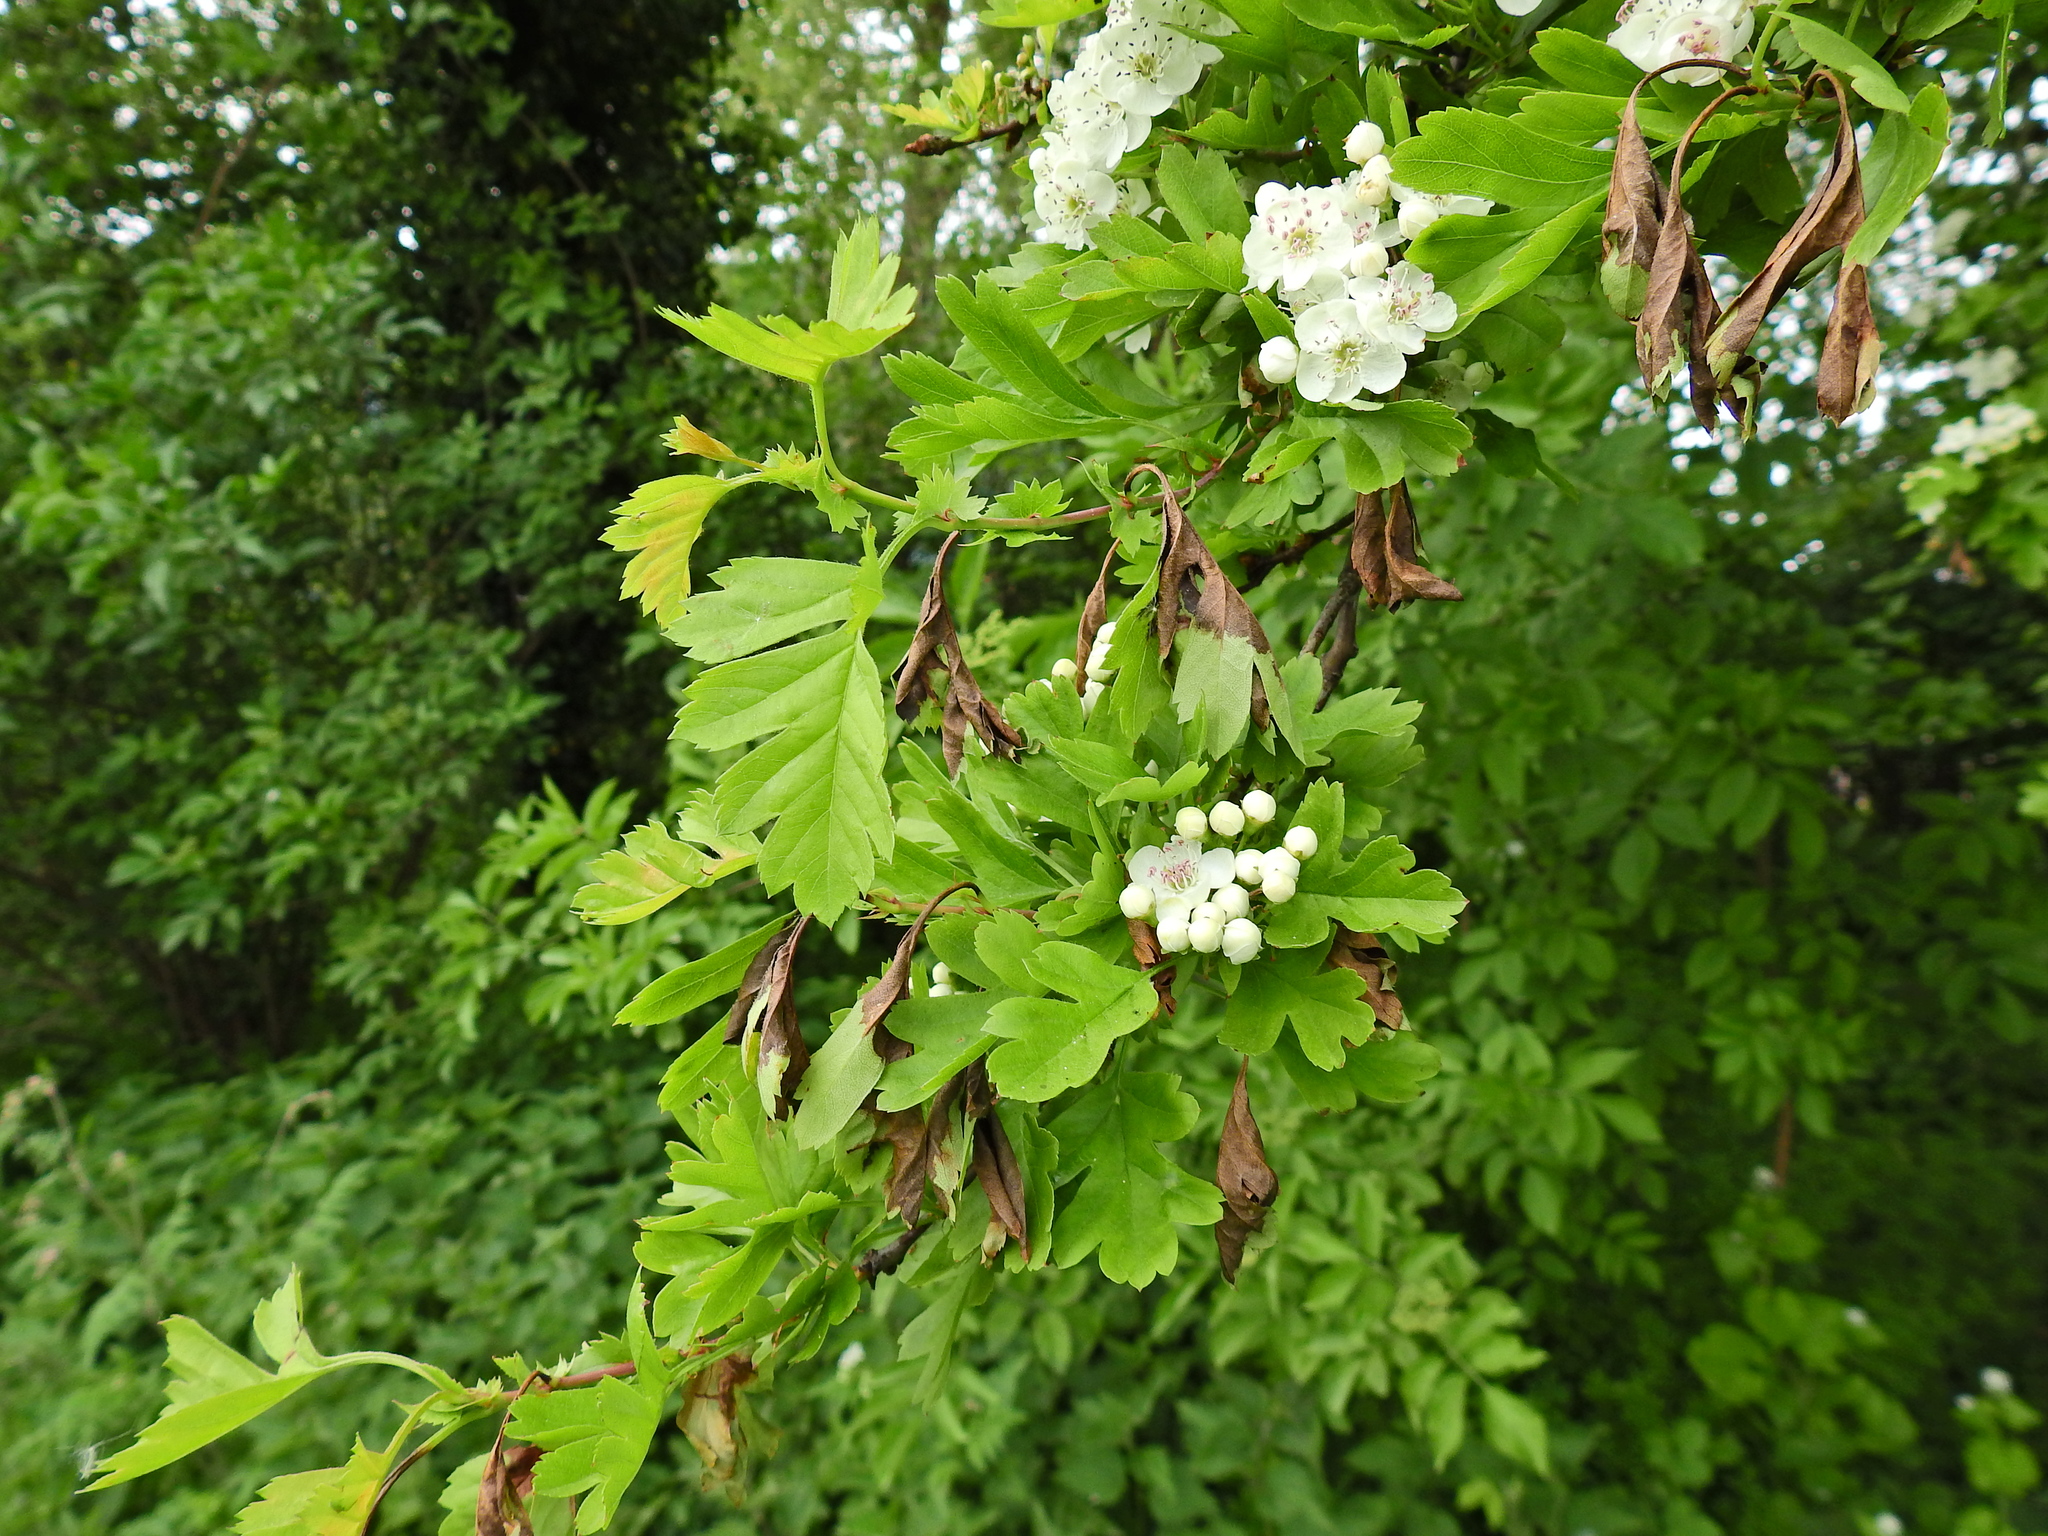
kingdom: Plantae
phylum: Tracheophyta
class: Magnoliopsida
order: Rosales
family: Rosaceae
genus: Crataegus
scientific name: Crataegus monogyna
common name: Hawthorn
